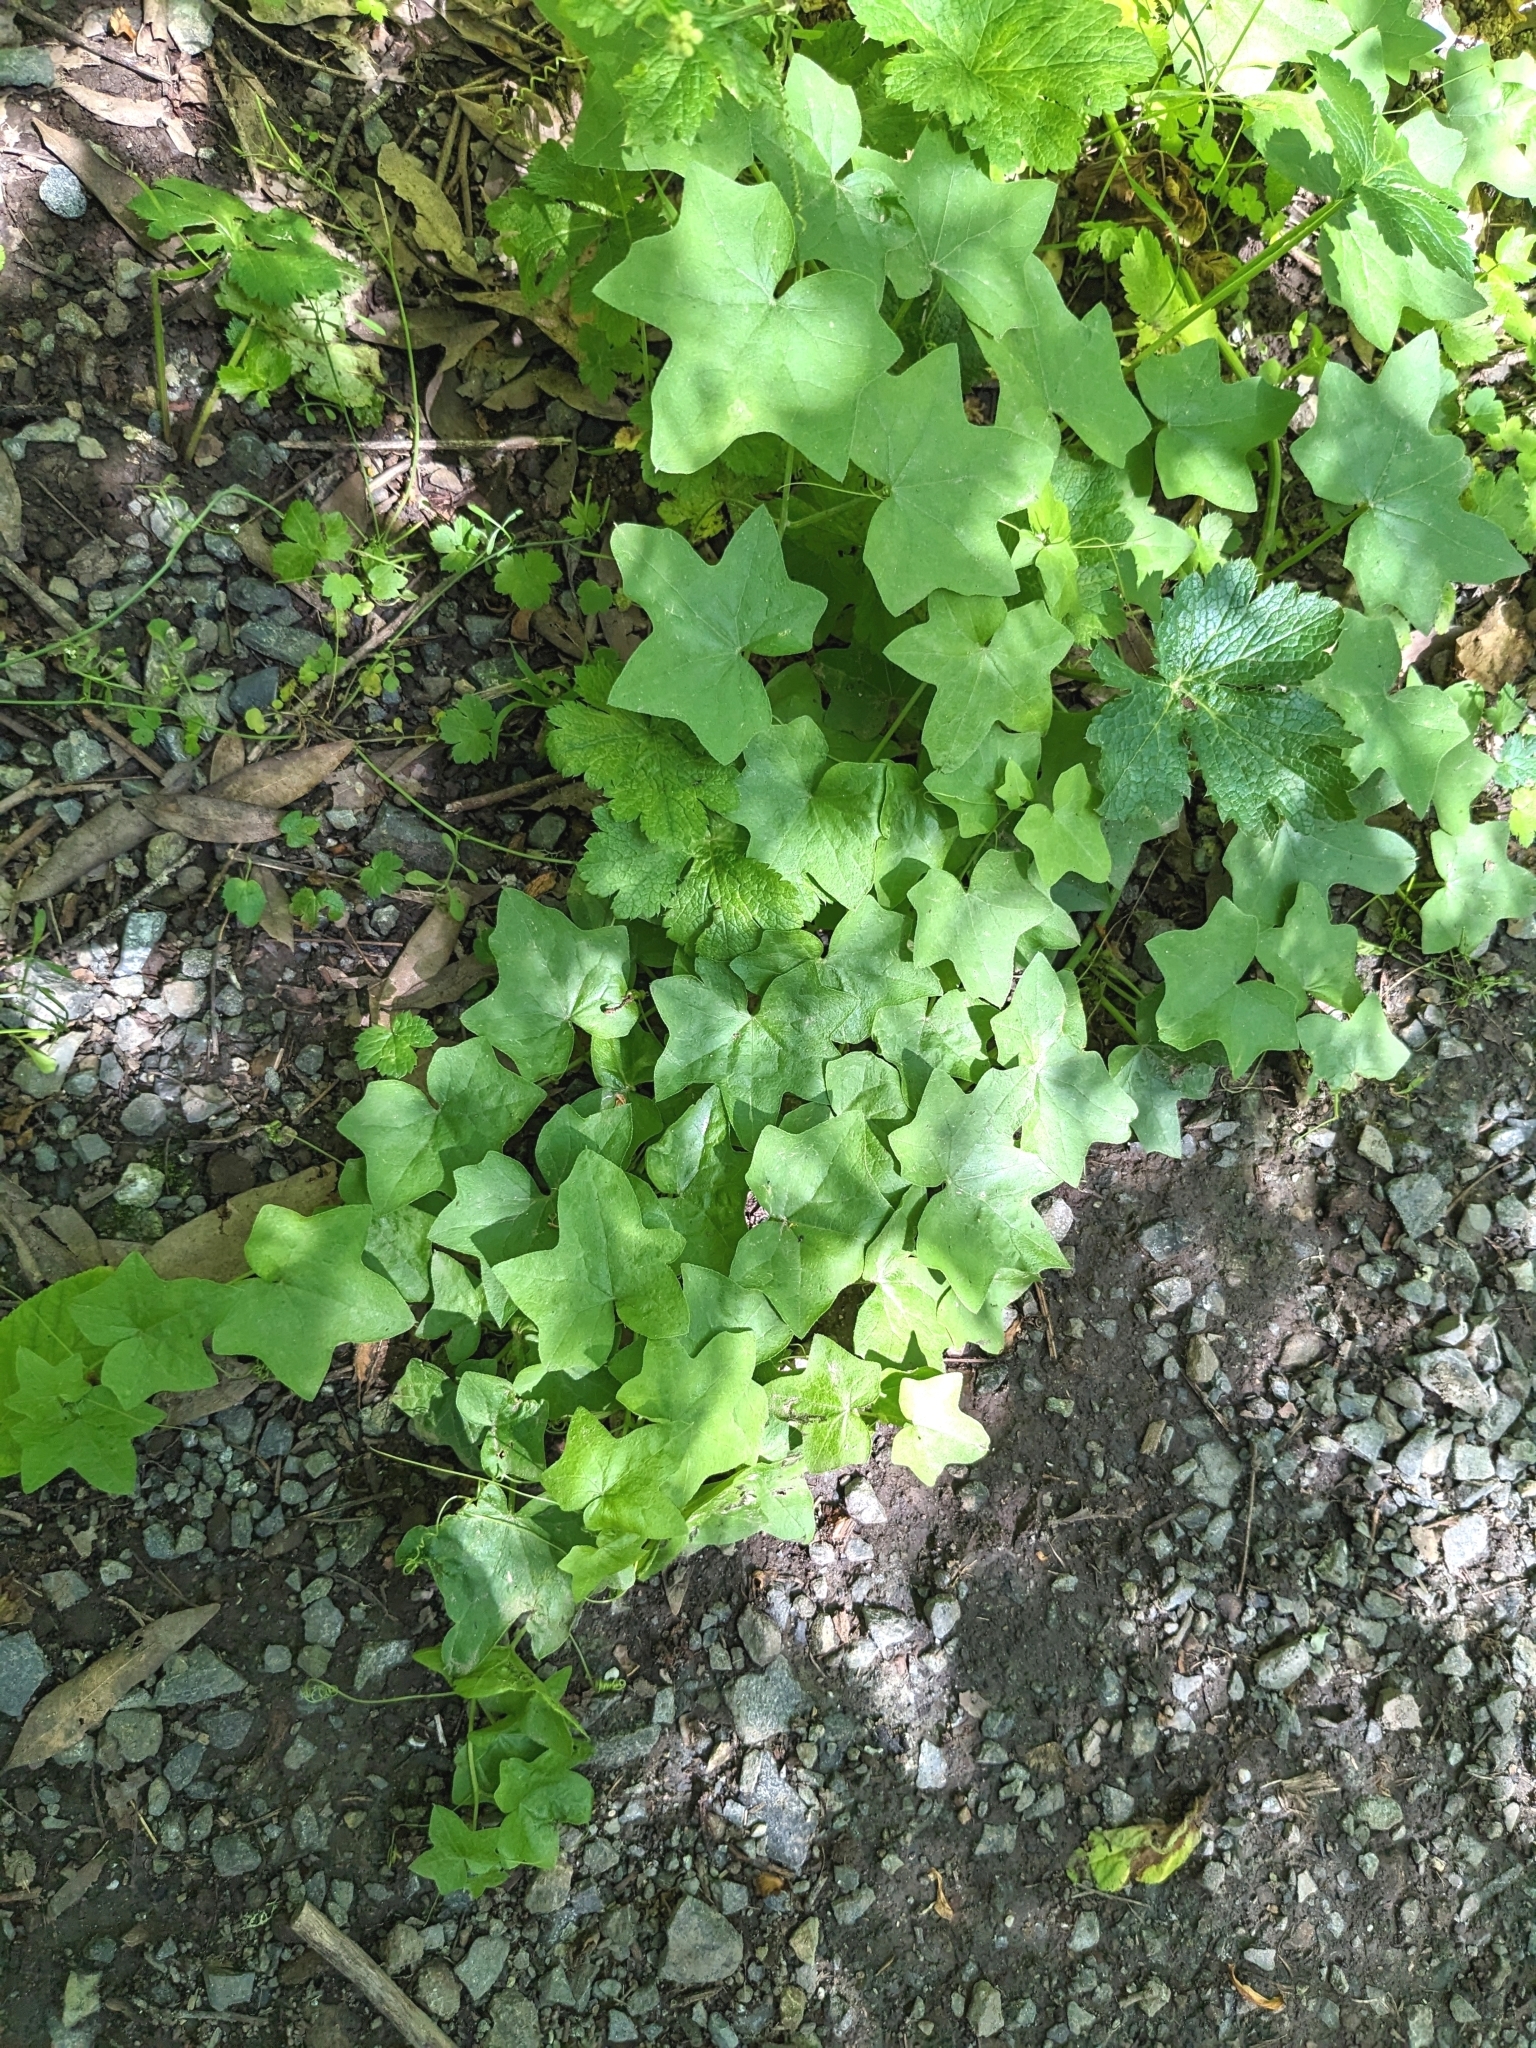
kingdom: Plantae
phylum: Tracheophyta
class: Magnoliopsida
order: Cucurbitales
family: Cucurbitaceae
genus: Marah
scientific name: Marah fabacea
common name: California manroot
